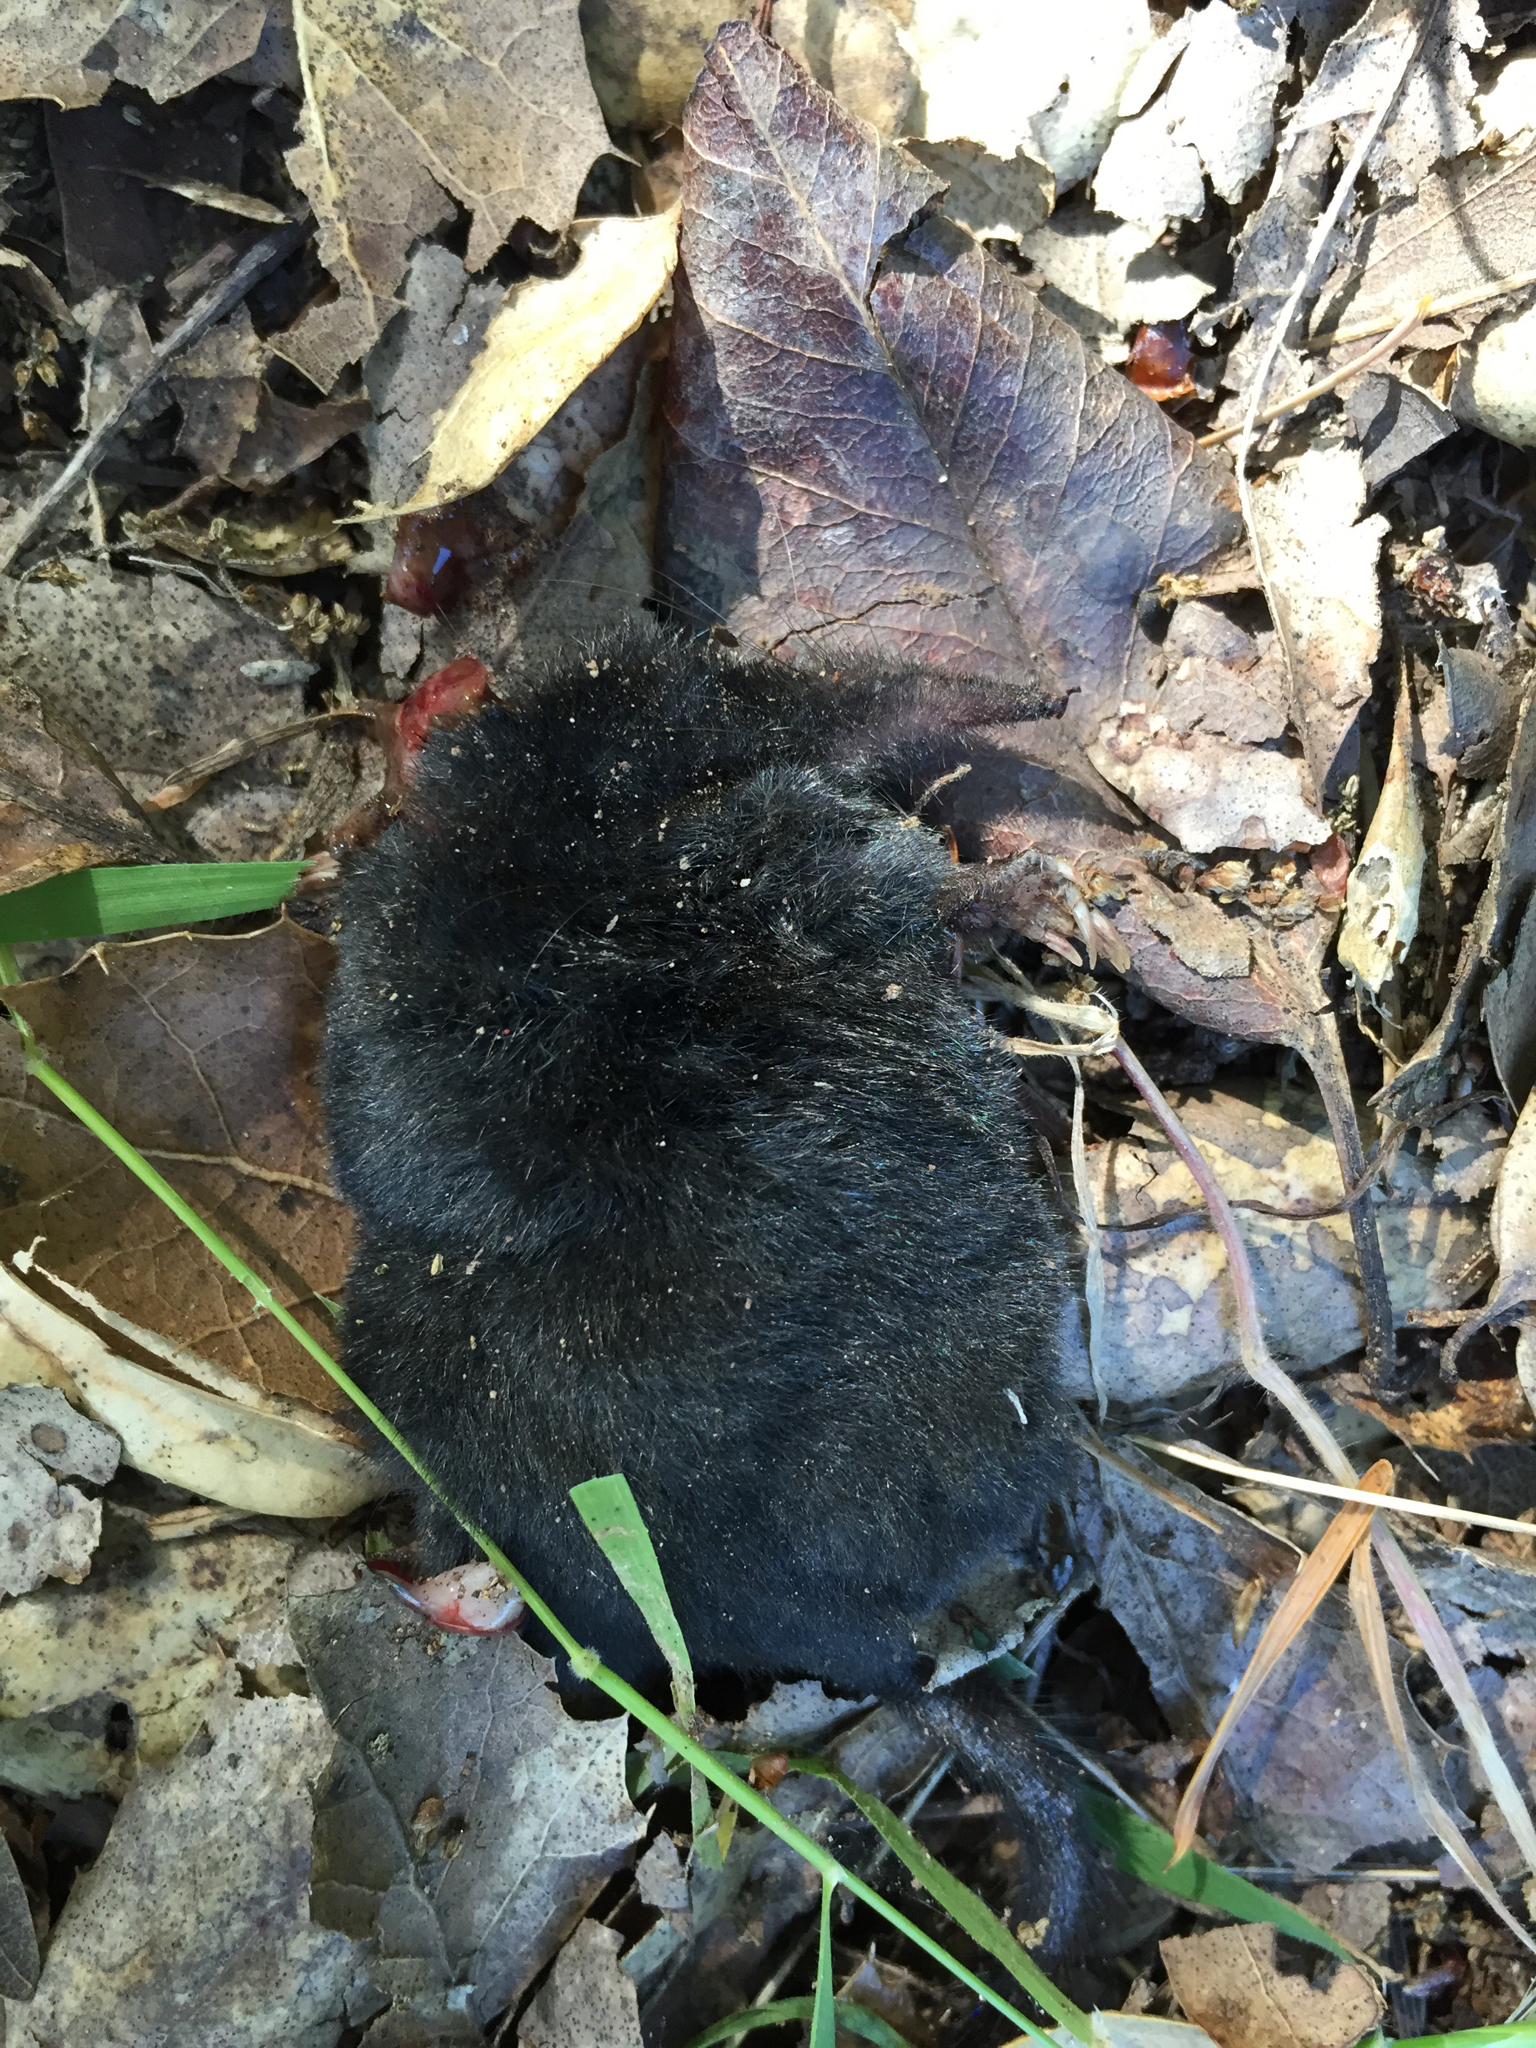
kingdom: Animalia
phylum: Chordata
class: Mammalia
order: Soricomorpha
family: Talpidae
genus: Neurotrichus
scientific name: Neurotrichus gibbsii
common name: American shrew mole
